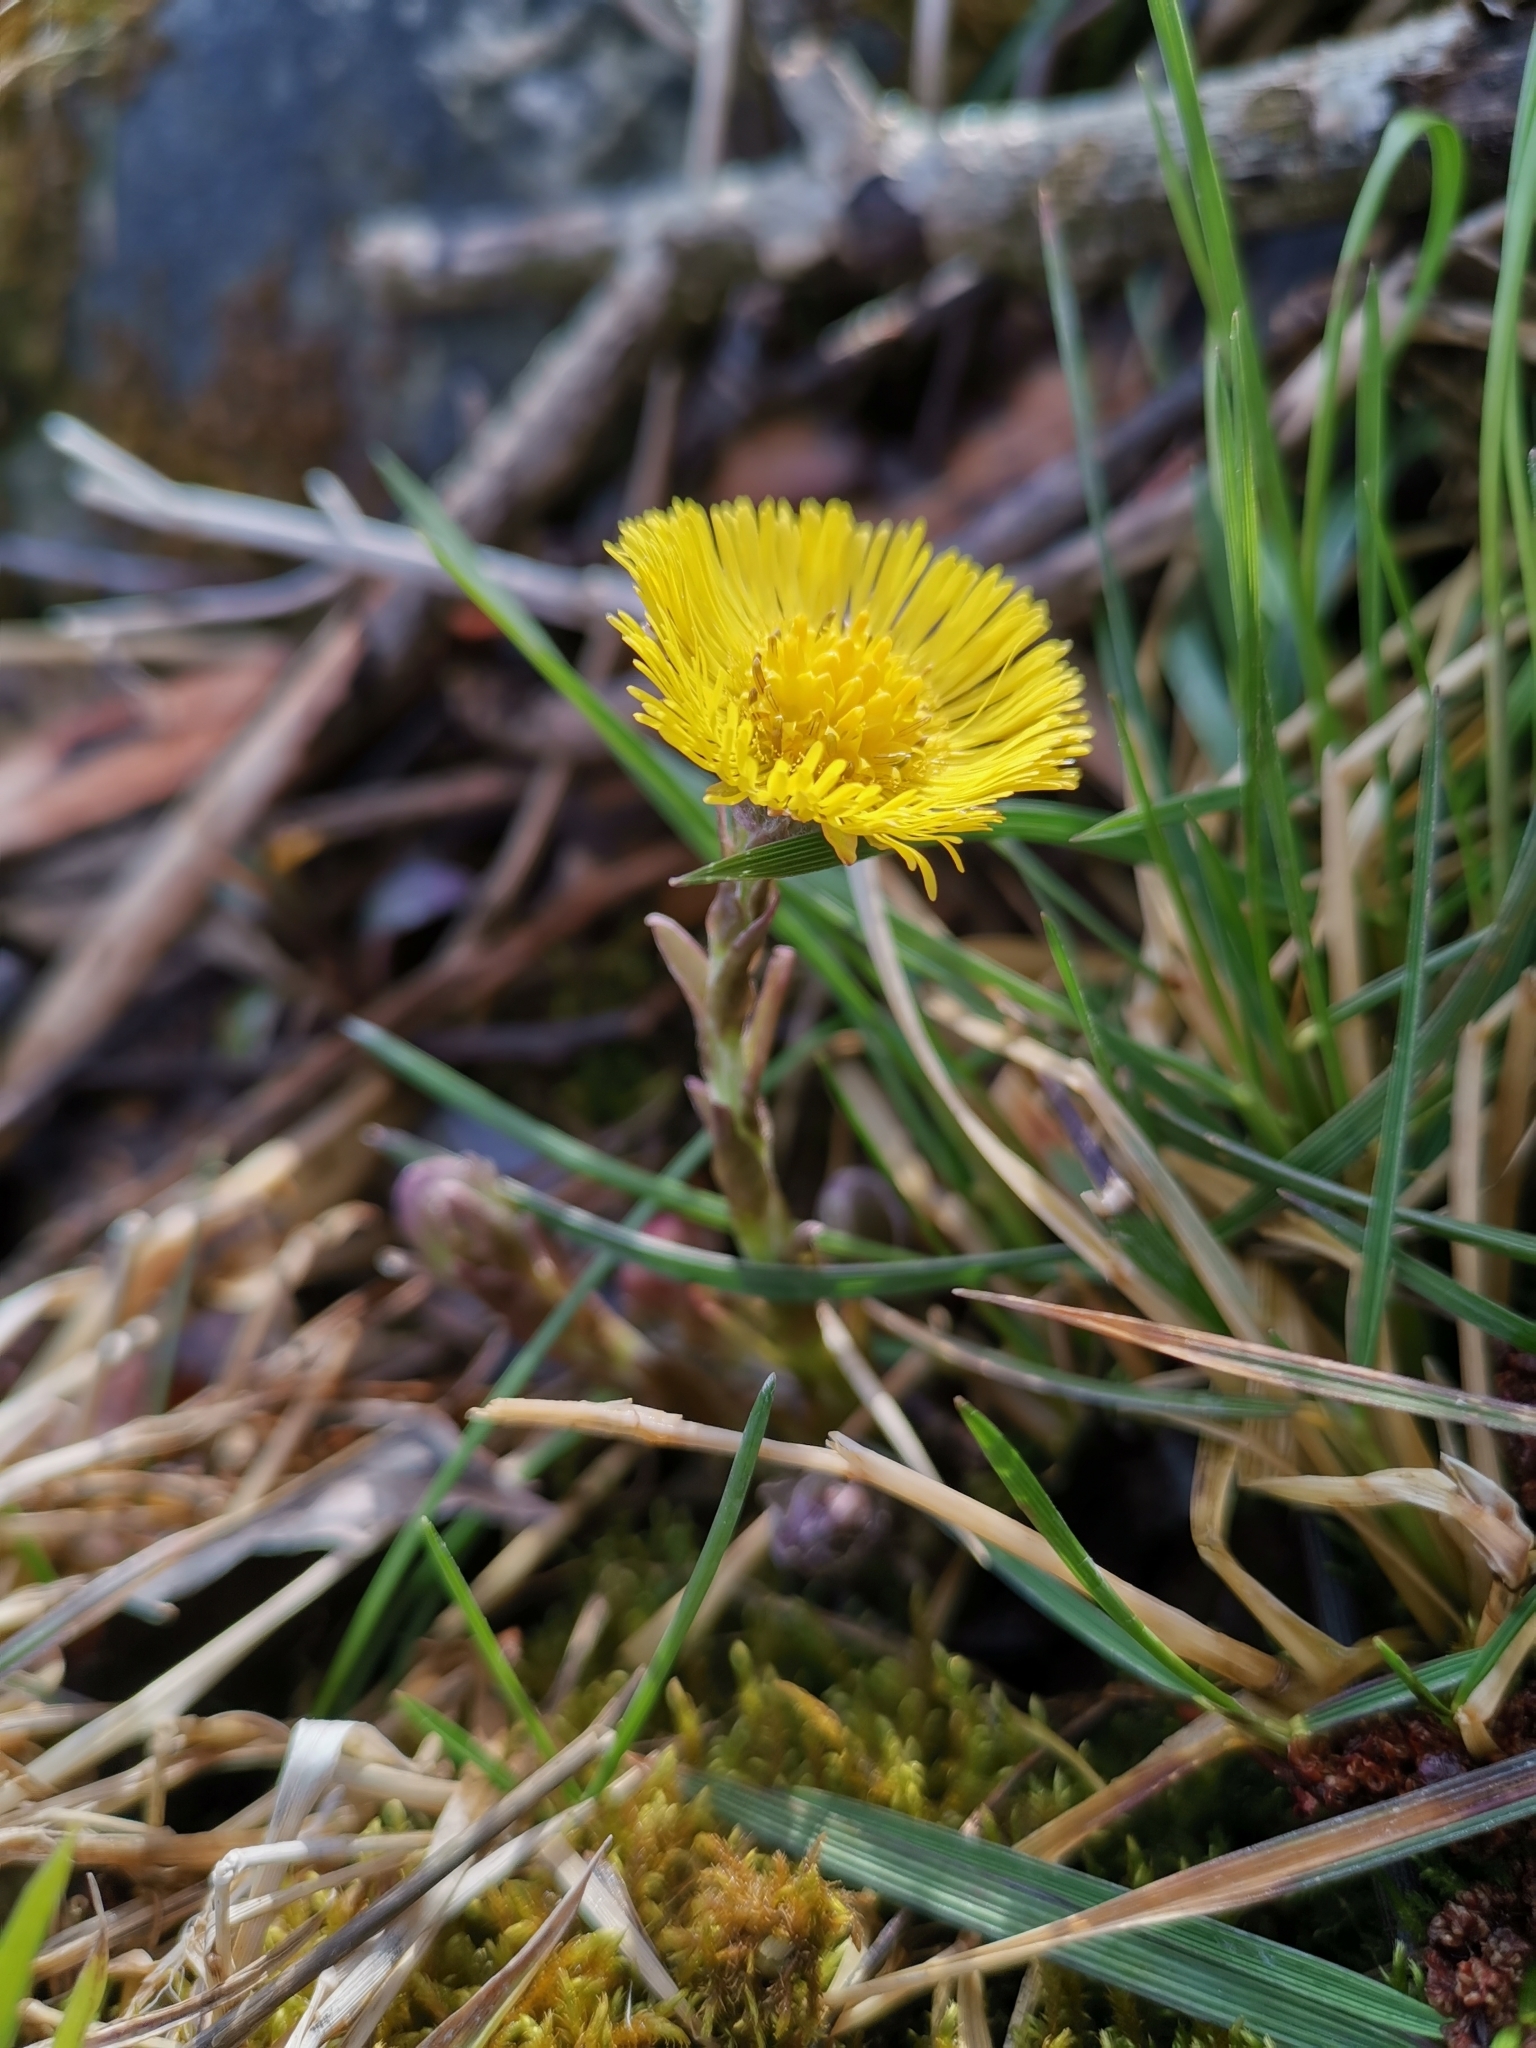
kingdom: Plantae
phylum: Tracheophyta
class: Magnoliopsida
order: Asterales
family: Asteraceae
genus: Tussilago
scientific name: Tussilago farfara
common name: Coltsfoot
